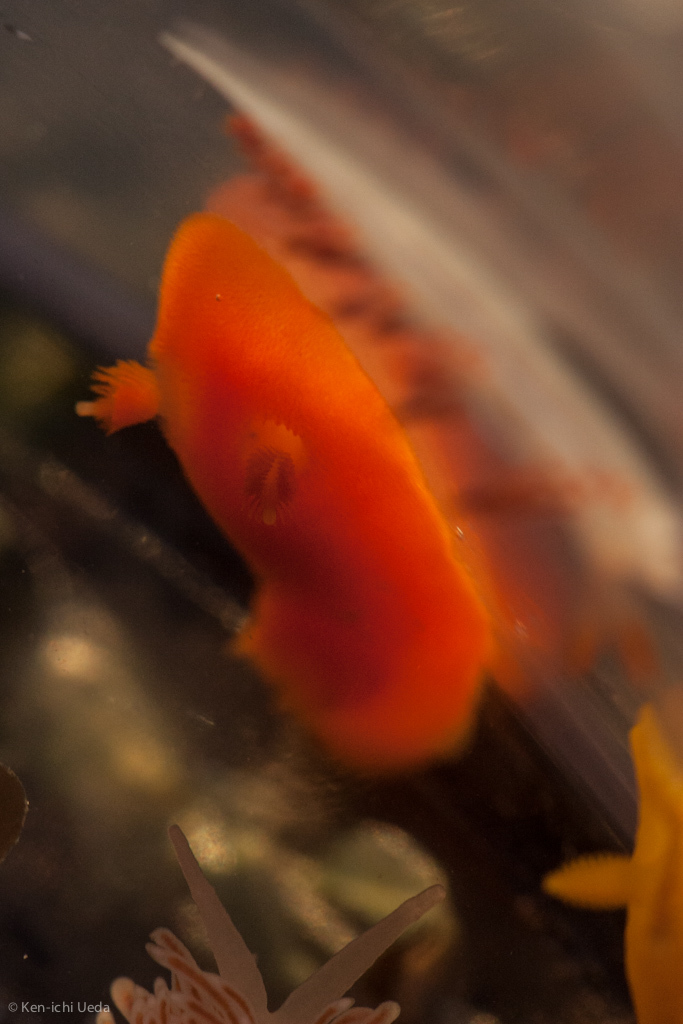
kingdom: Animalia
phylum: Mollusca
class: Gastropoda
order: Nudibranchia
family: Discodorididae
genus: Rostanga
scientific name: Rostanga pulchra
